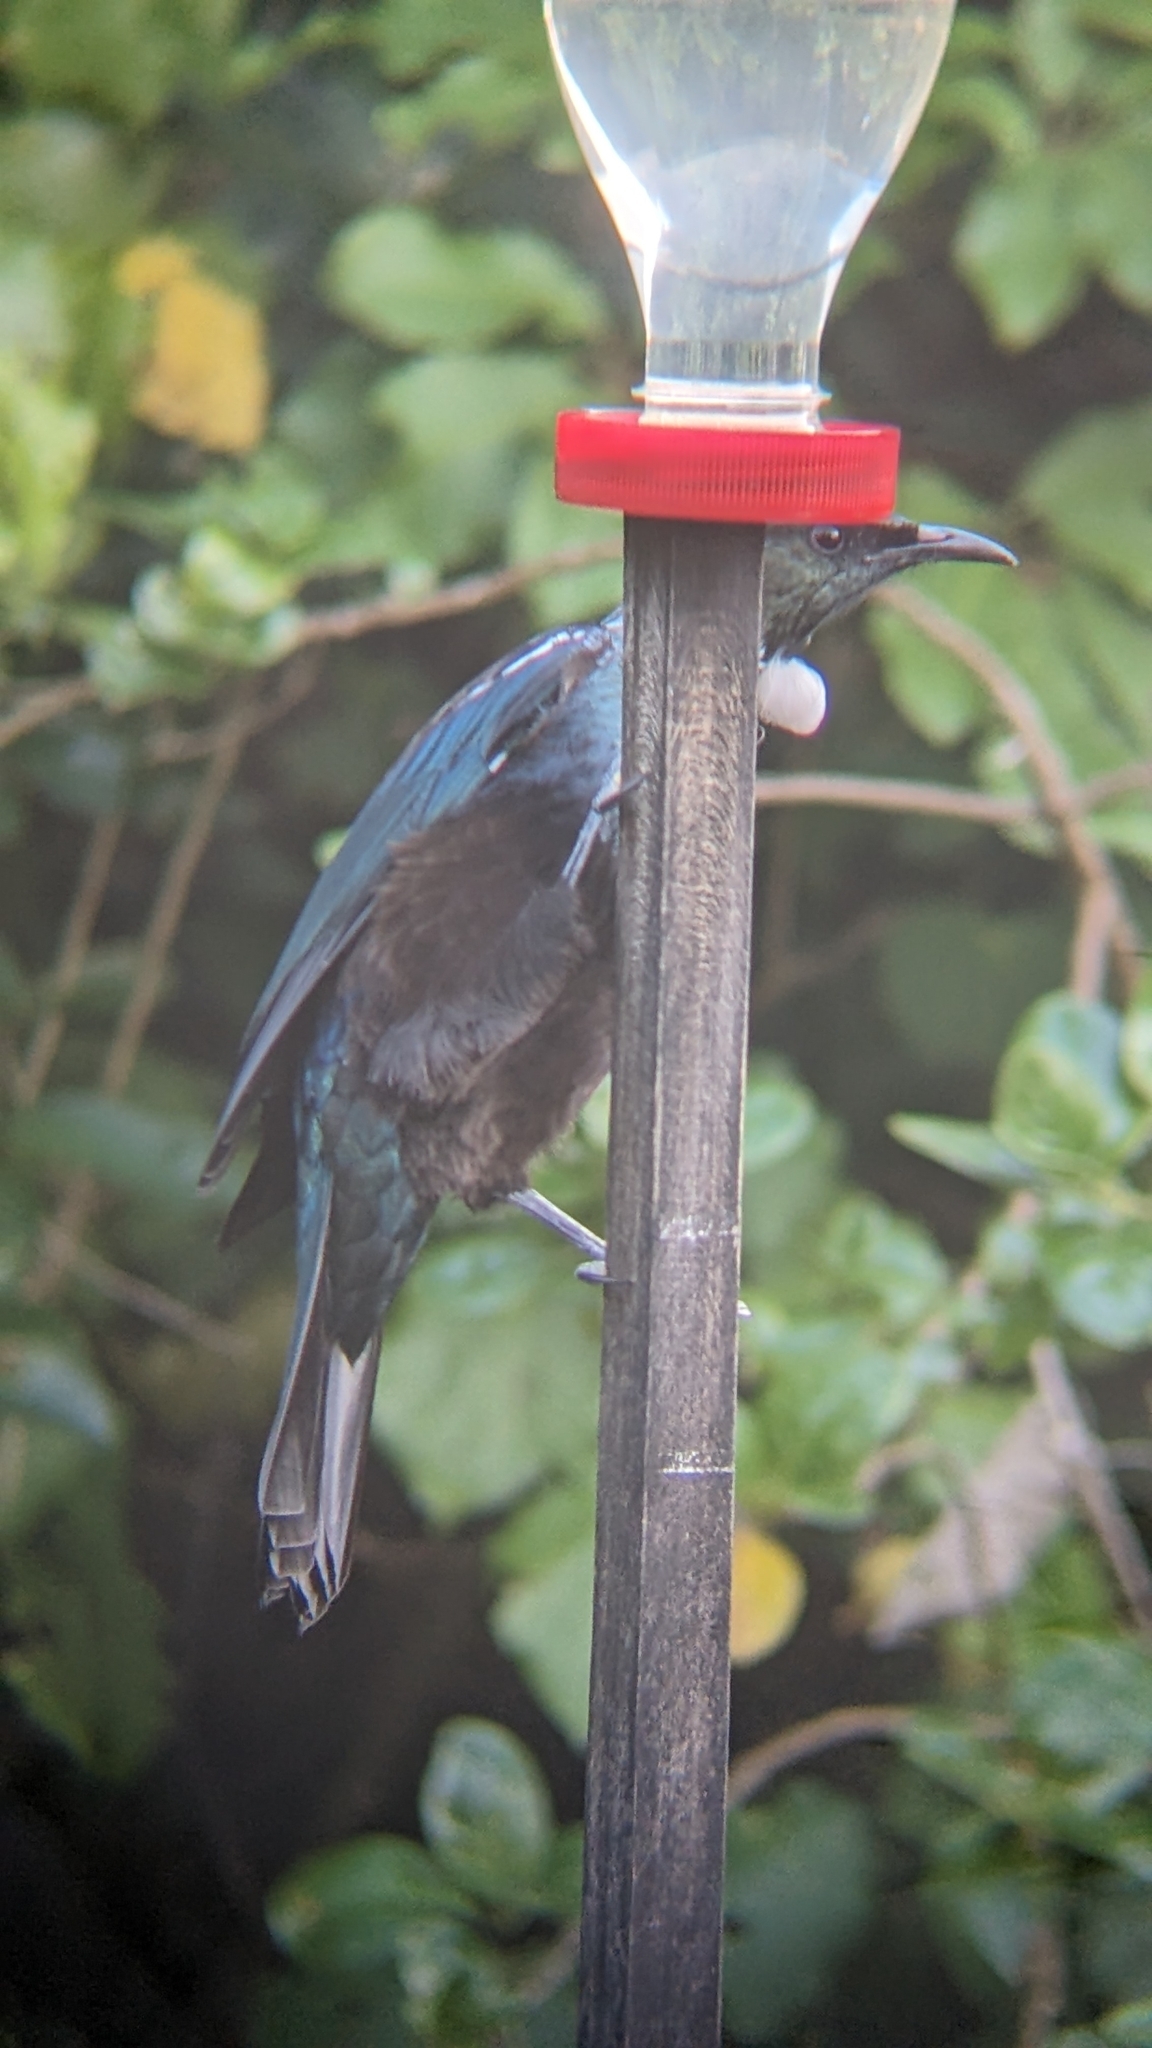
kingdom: Animalia
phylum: Chordata
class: Aves
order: Passeriformes
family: Meliphagidae
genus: Prosthemadera
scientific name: Prosthemadera novaeseelandiae
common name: Tui
